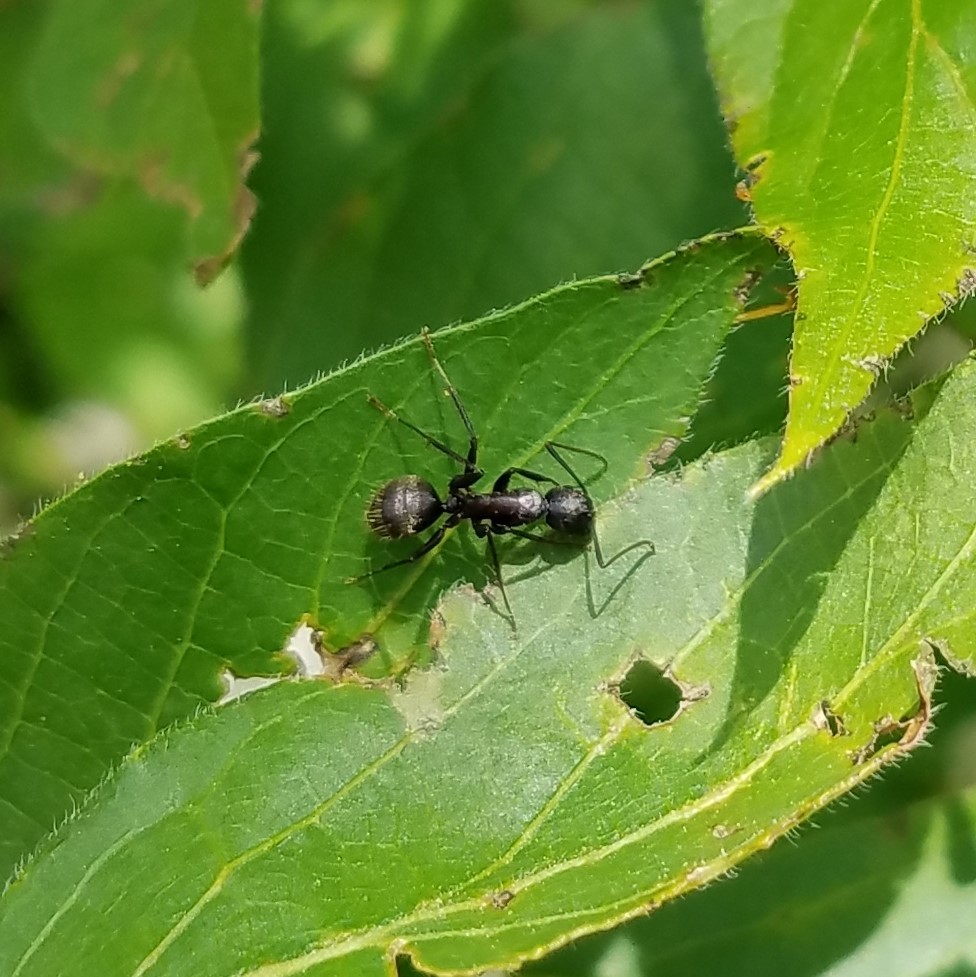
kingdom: Animalia
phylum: Arthropoda
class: Insecta
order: Hymenoptera
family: Formicidae
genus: Camponotus
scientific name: Camponotus pennsylvanicus
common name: Black carpenter ant
